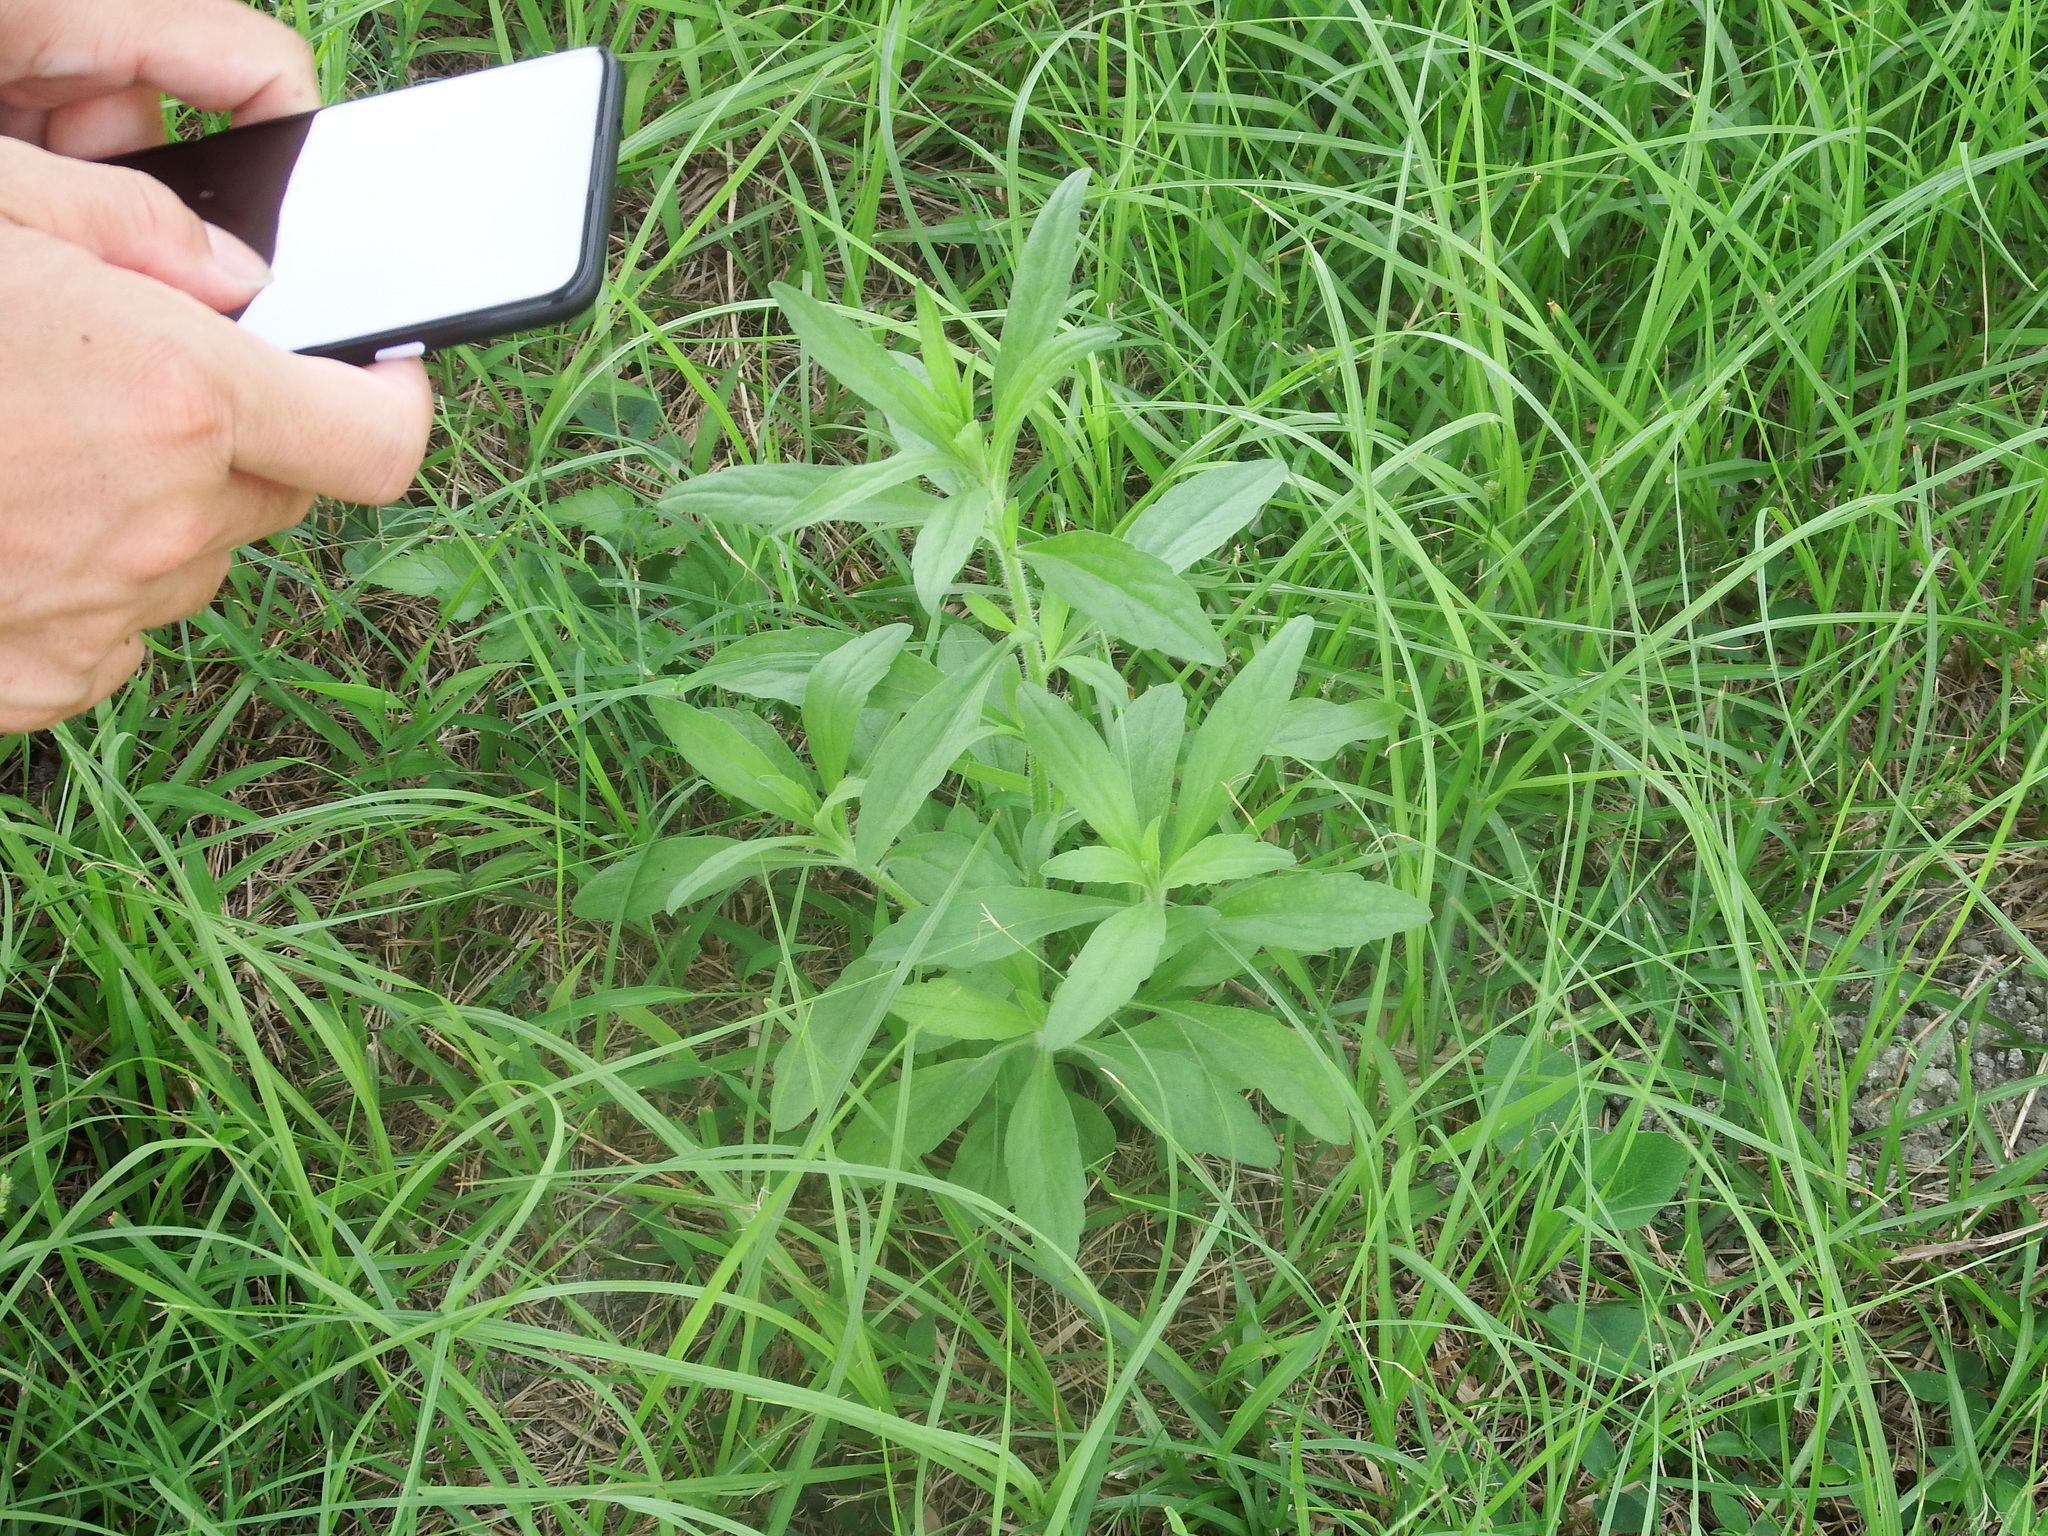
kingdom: Plantae
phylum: Tracheophyta
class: Magnoliopsida
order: Asterales
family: Asteraceae
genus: Erigeron
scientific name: Erigeron sumatrensis
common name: Daisy
